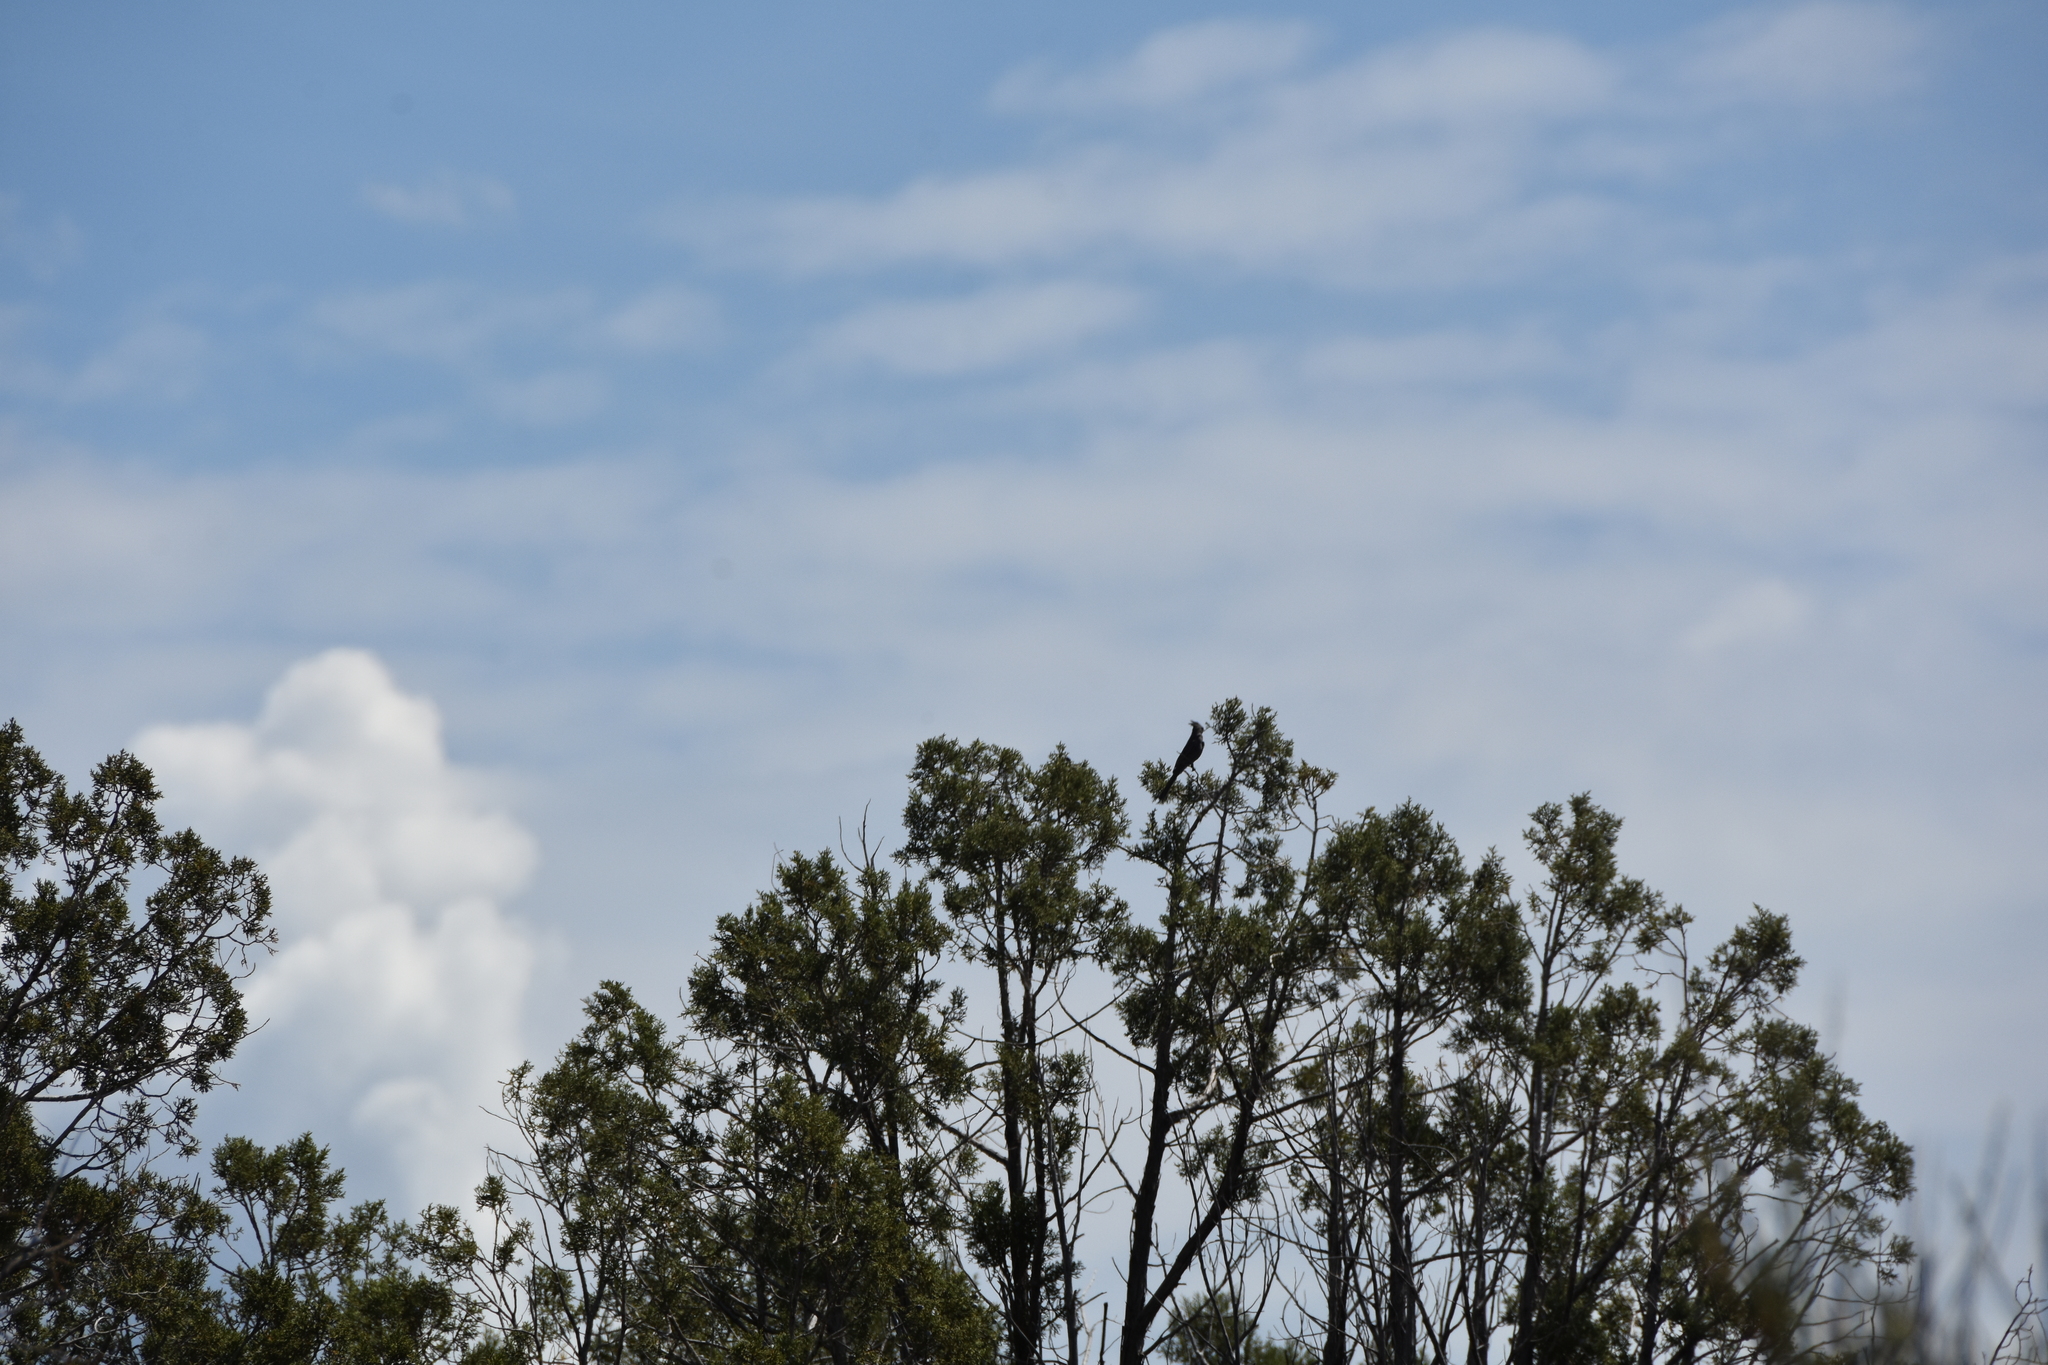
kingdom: Animalia
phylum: Chordata
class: Aves
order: Passeriformes
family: Ptilogonatidae
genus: Phainopepla
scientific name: Phainopepla nitens
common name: Phainopepla
